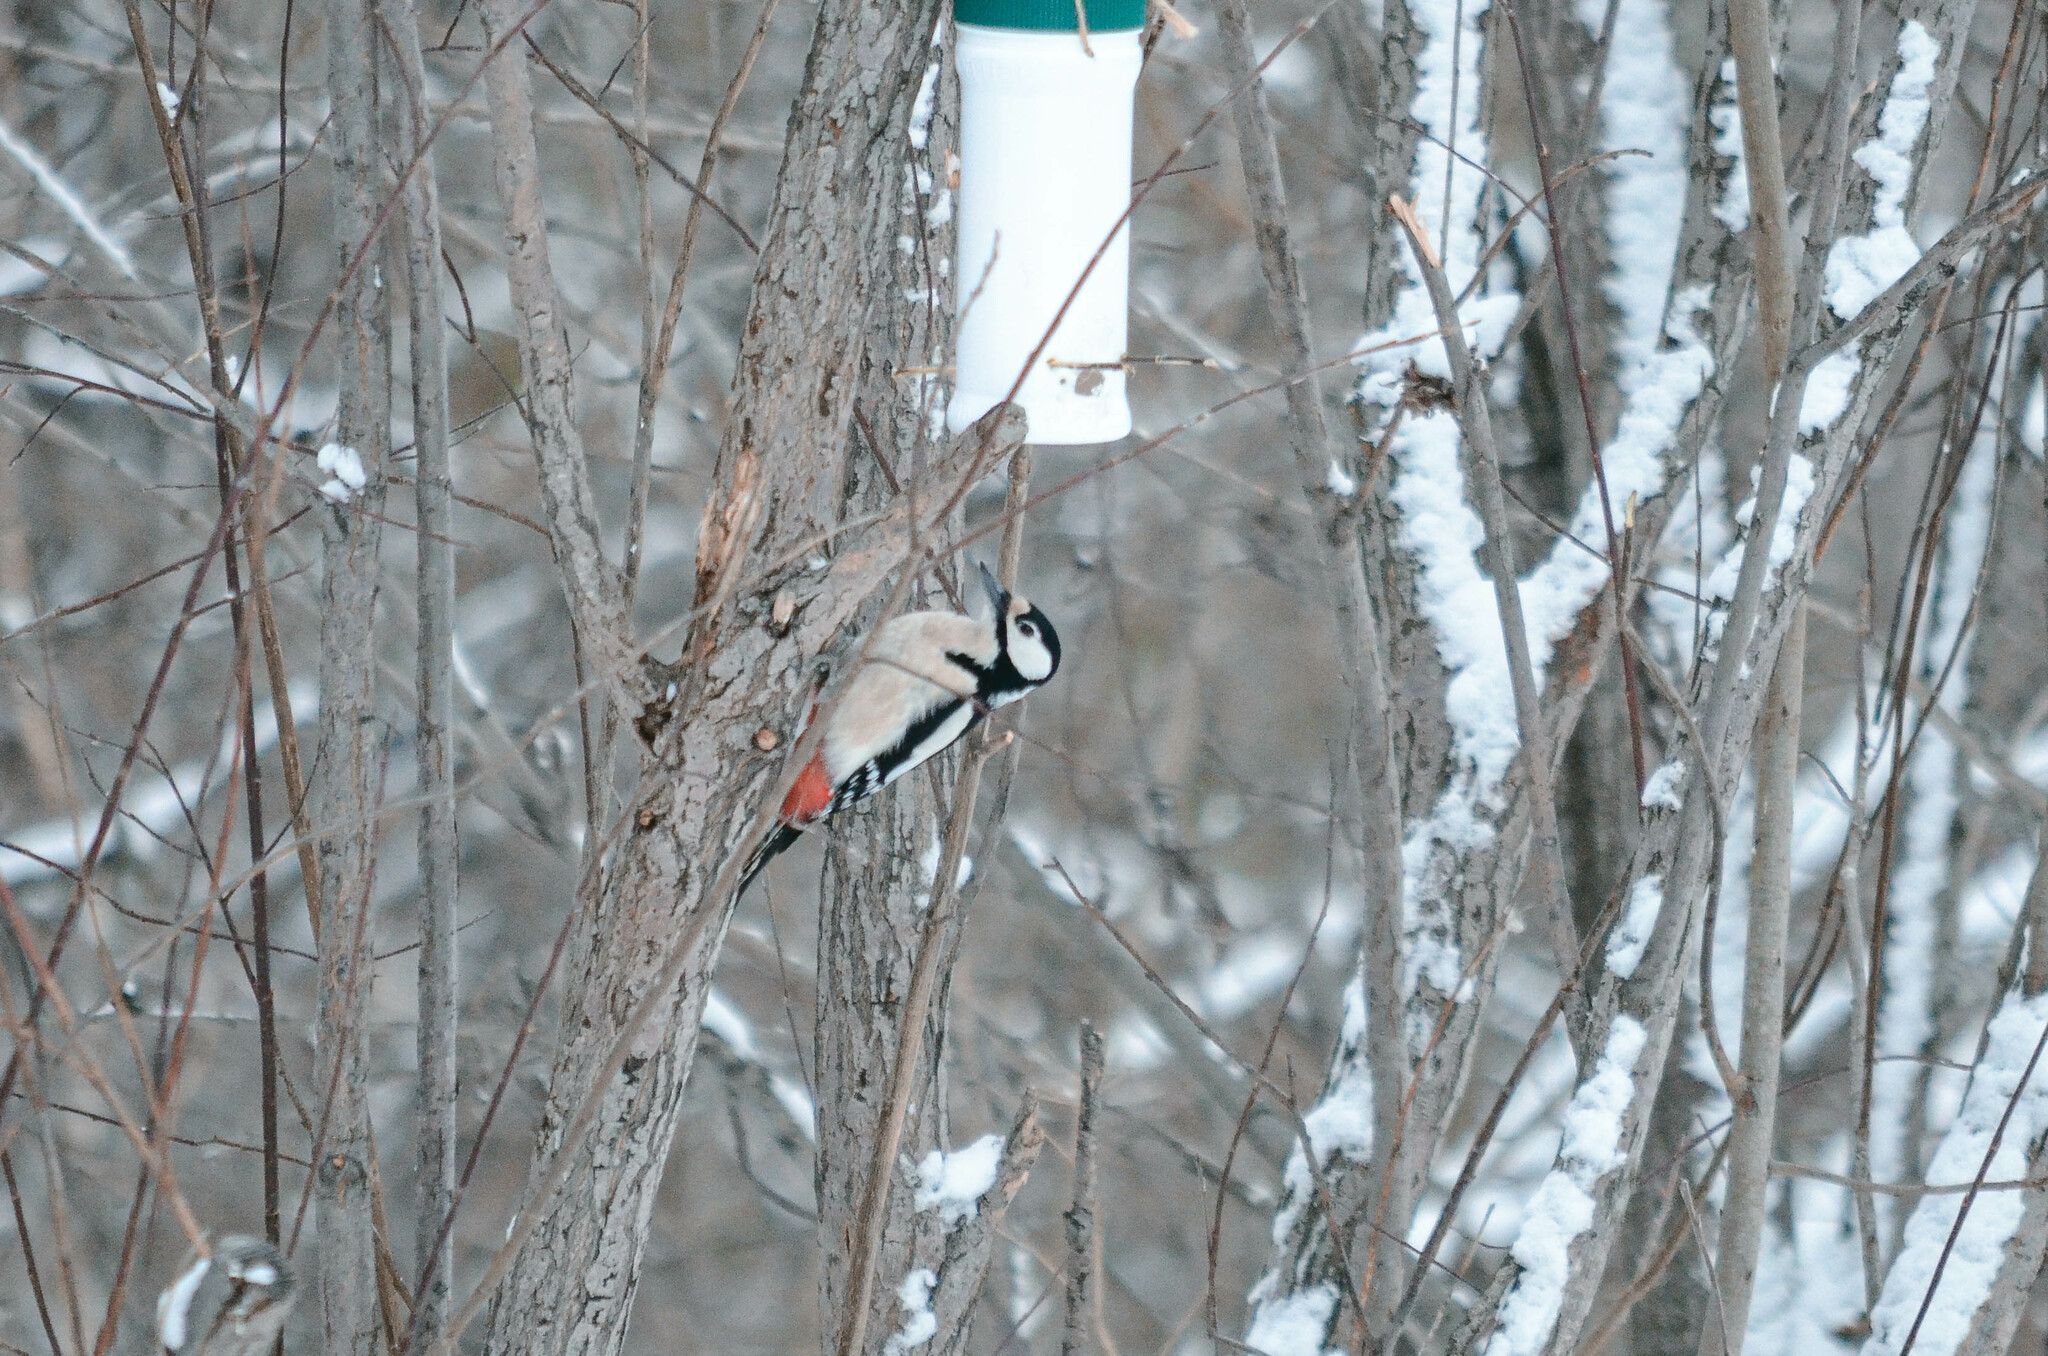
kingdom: Animalia
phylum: Chordata
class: Aves
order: Piciformes
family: Picidae
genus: Dendrocopos
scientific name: Dendrocopos major
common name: Great spotted woodpecker
